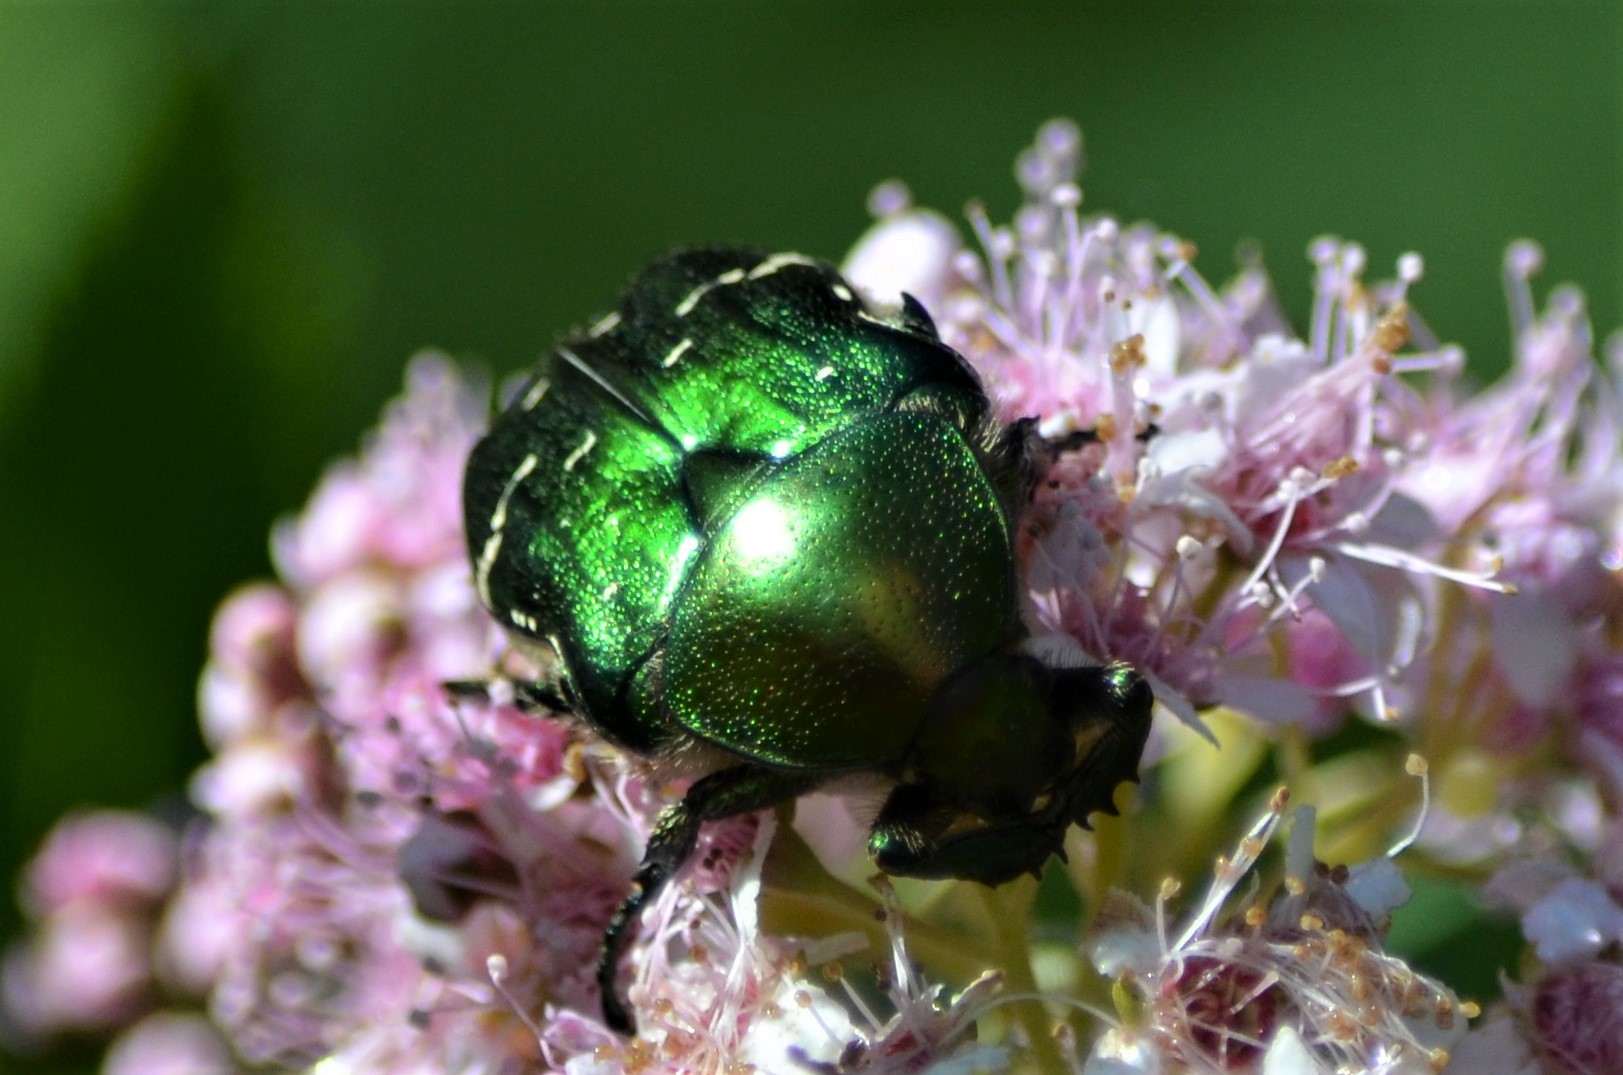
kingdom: Animalia
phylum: Arthropoda
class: Insecta
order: Coleoptera
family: Scarabaeidae
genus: Cetonia
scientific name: Cetonia aurata
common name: Rose chafer
